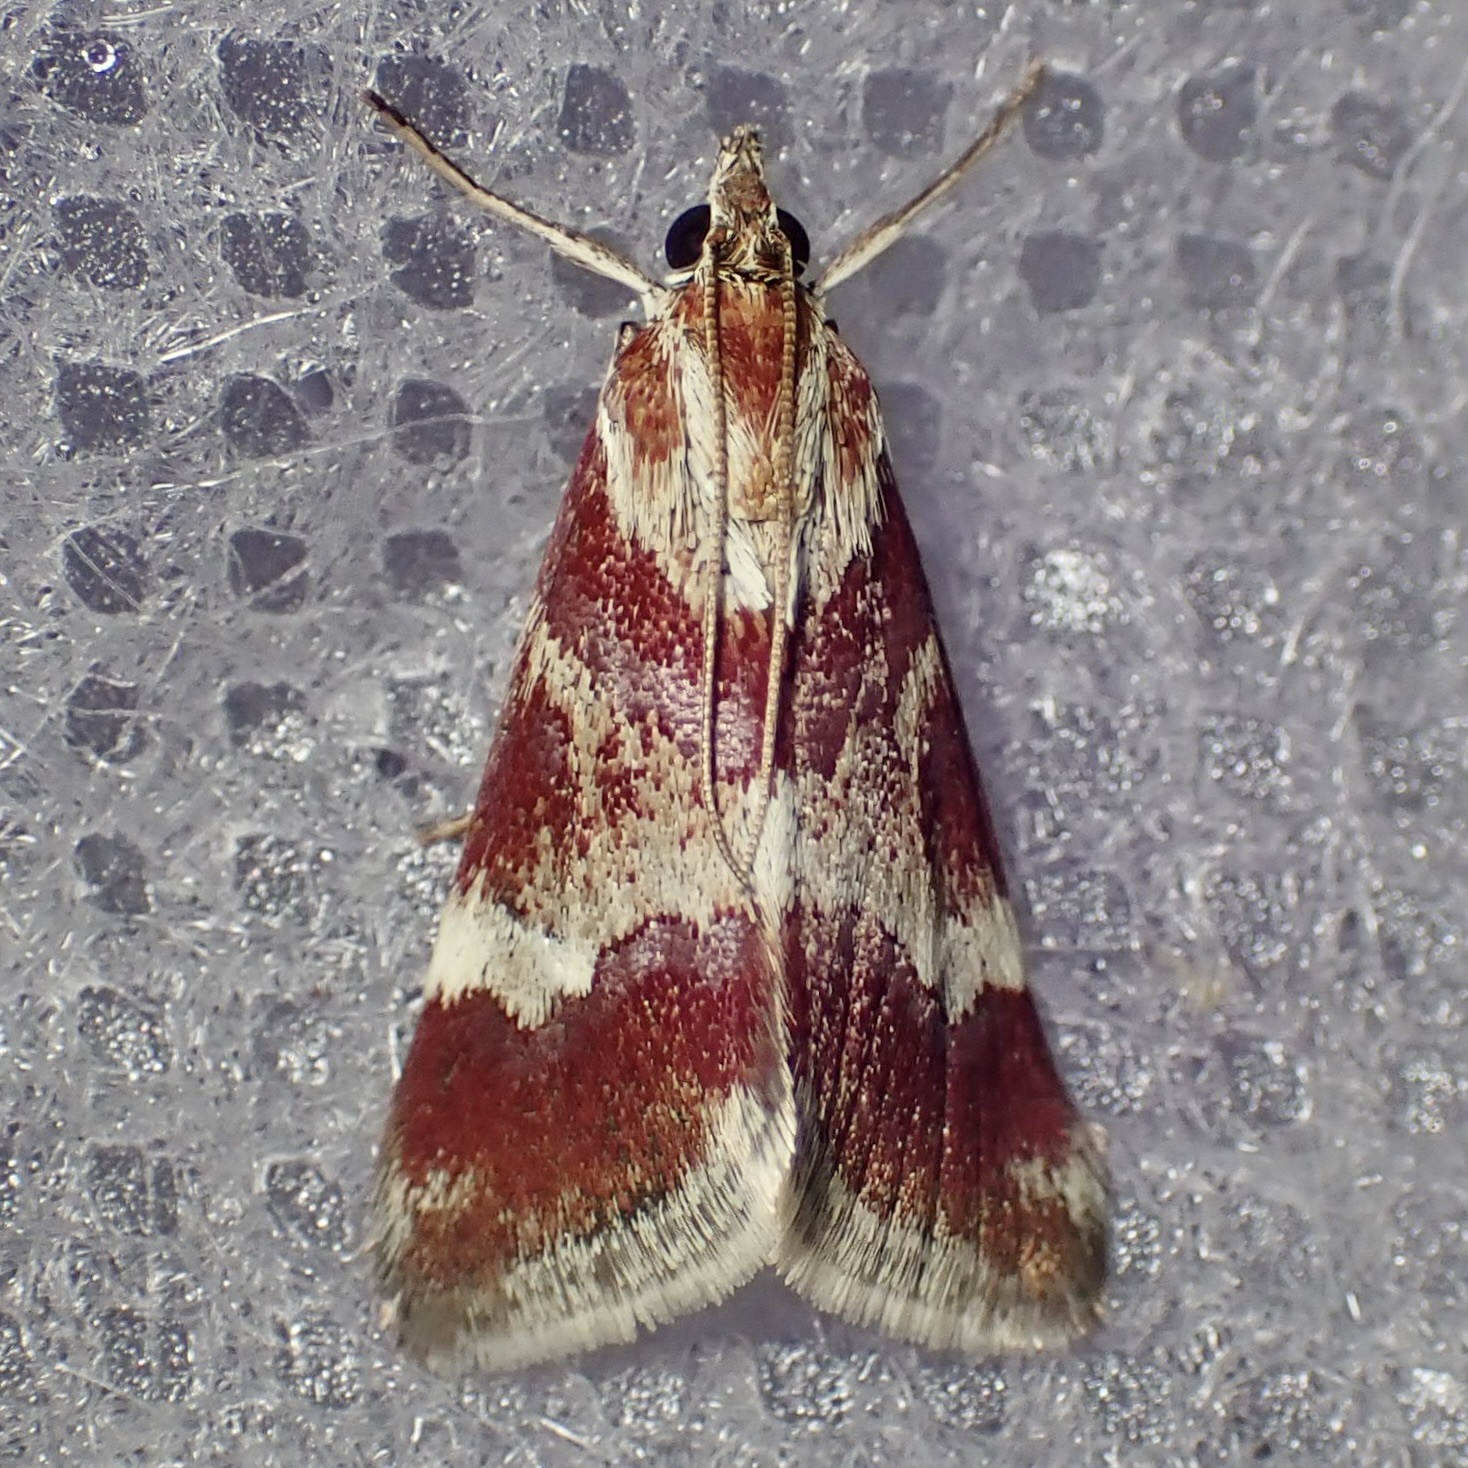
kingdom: Animalia
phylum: Arthropoda
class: Insecta
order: Lepidoptera
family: Crambidae
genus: Noctuelia
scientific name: Noctuelia Mimoschinia rufofascialis
